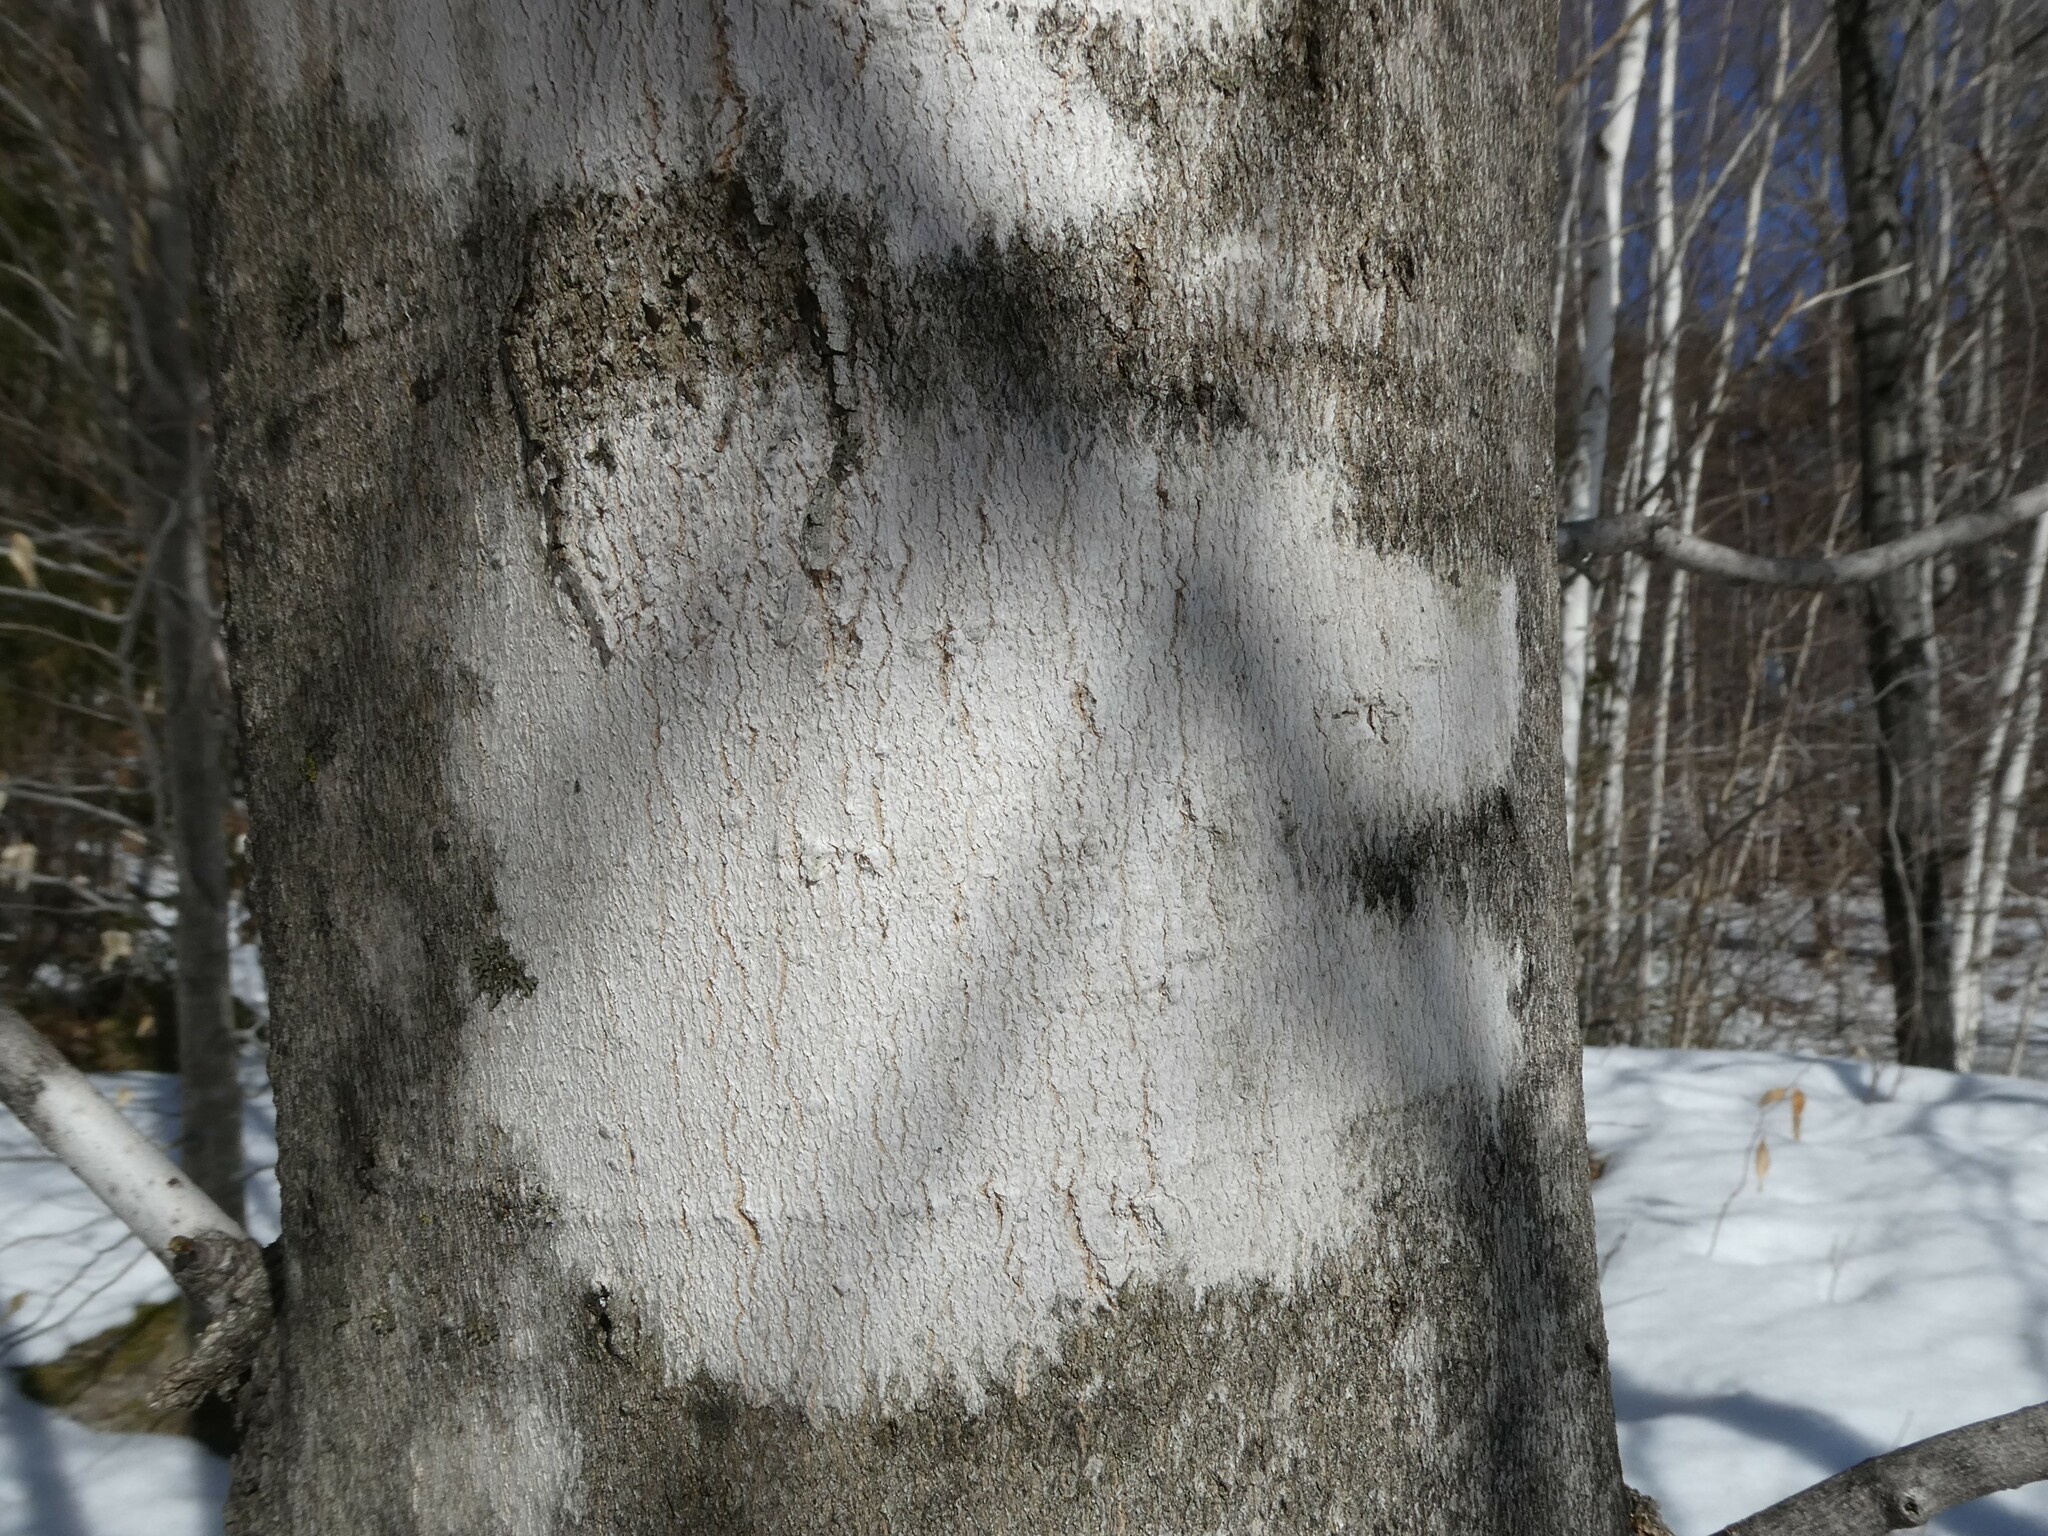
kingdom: Fungi
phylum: Ascomycota
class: Lecanoromycetes
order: Ostropales
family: Phlyctidaceae
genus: Phlyctis
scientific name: Phlyctis argena
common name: Whitewash lichen
